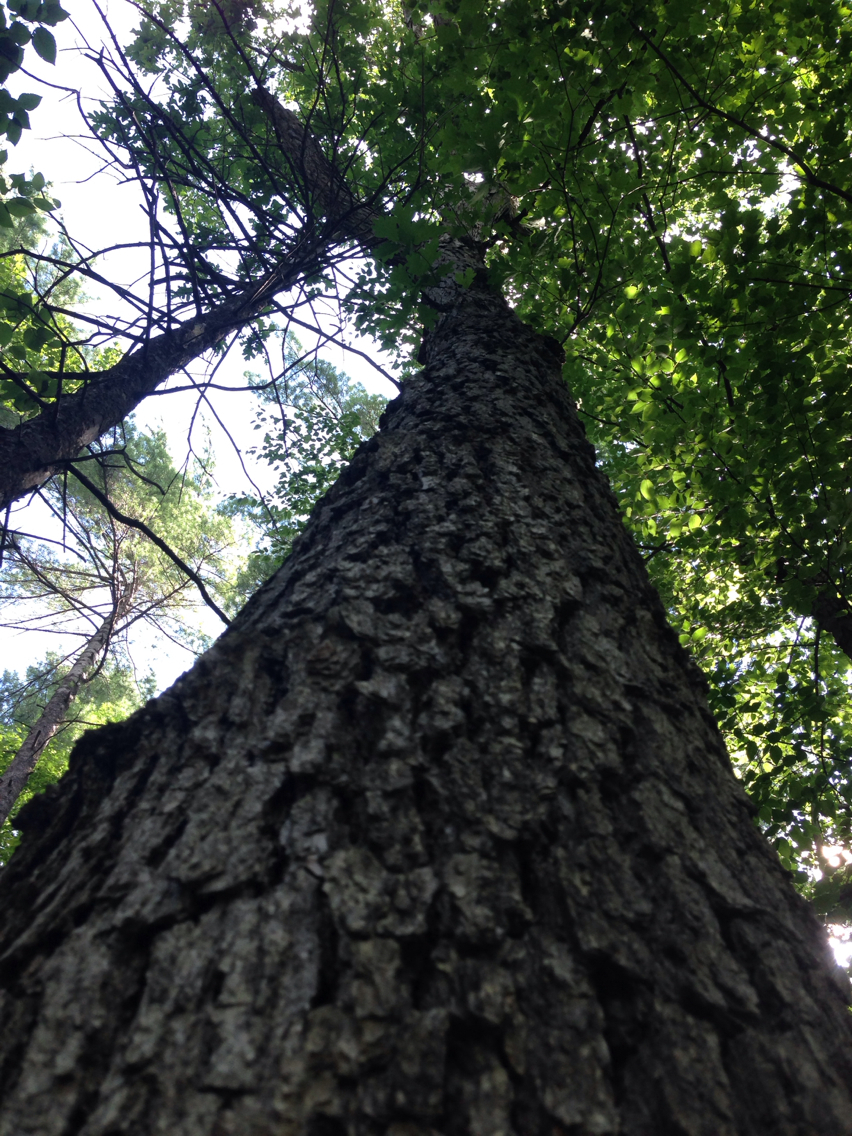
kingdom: Plantae
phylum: Tracheophyta
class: Magnoliopsida
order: Fagales
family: Fagaceae
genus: Quercus
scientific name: Quercus alba
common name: White oak
